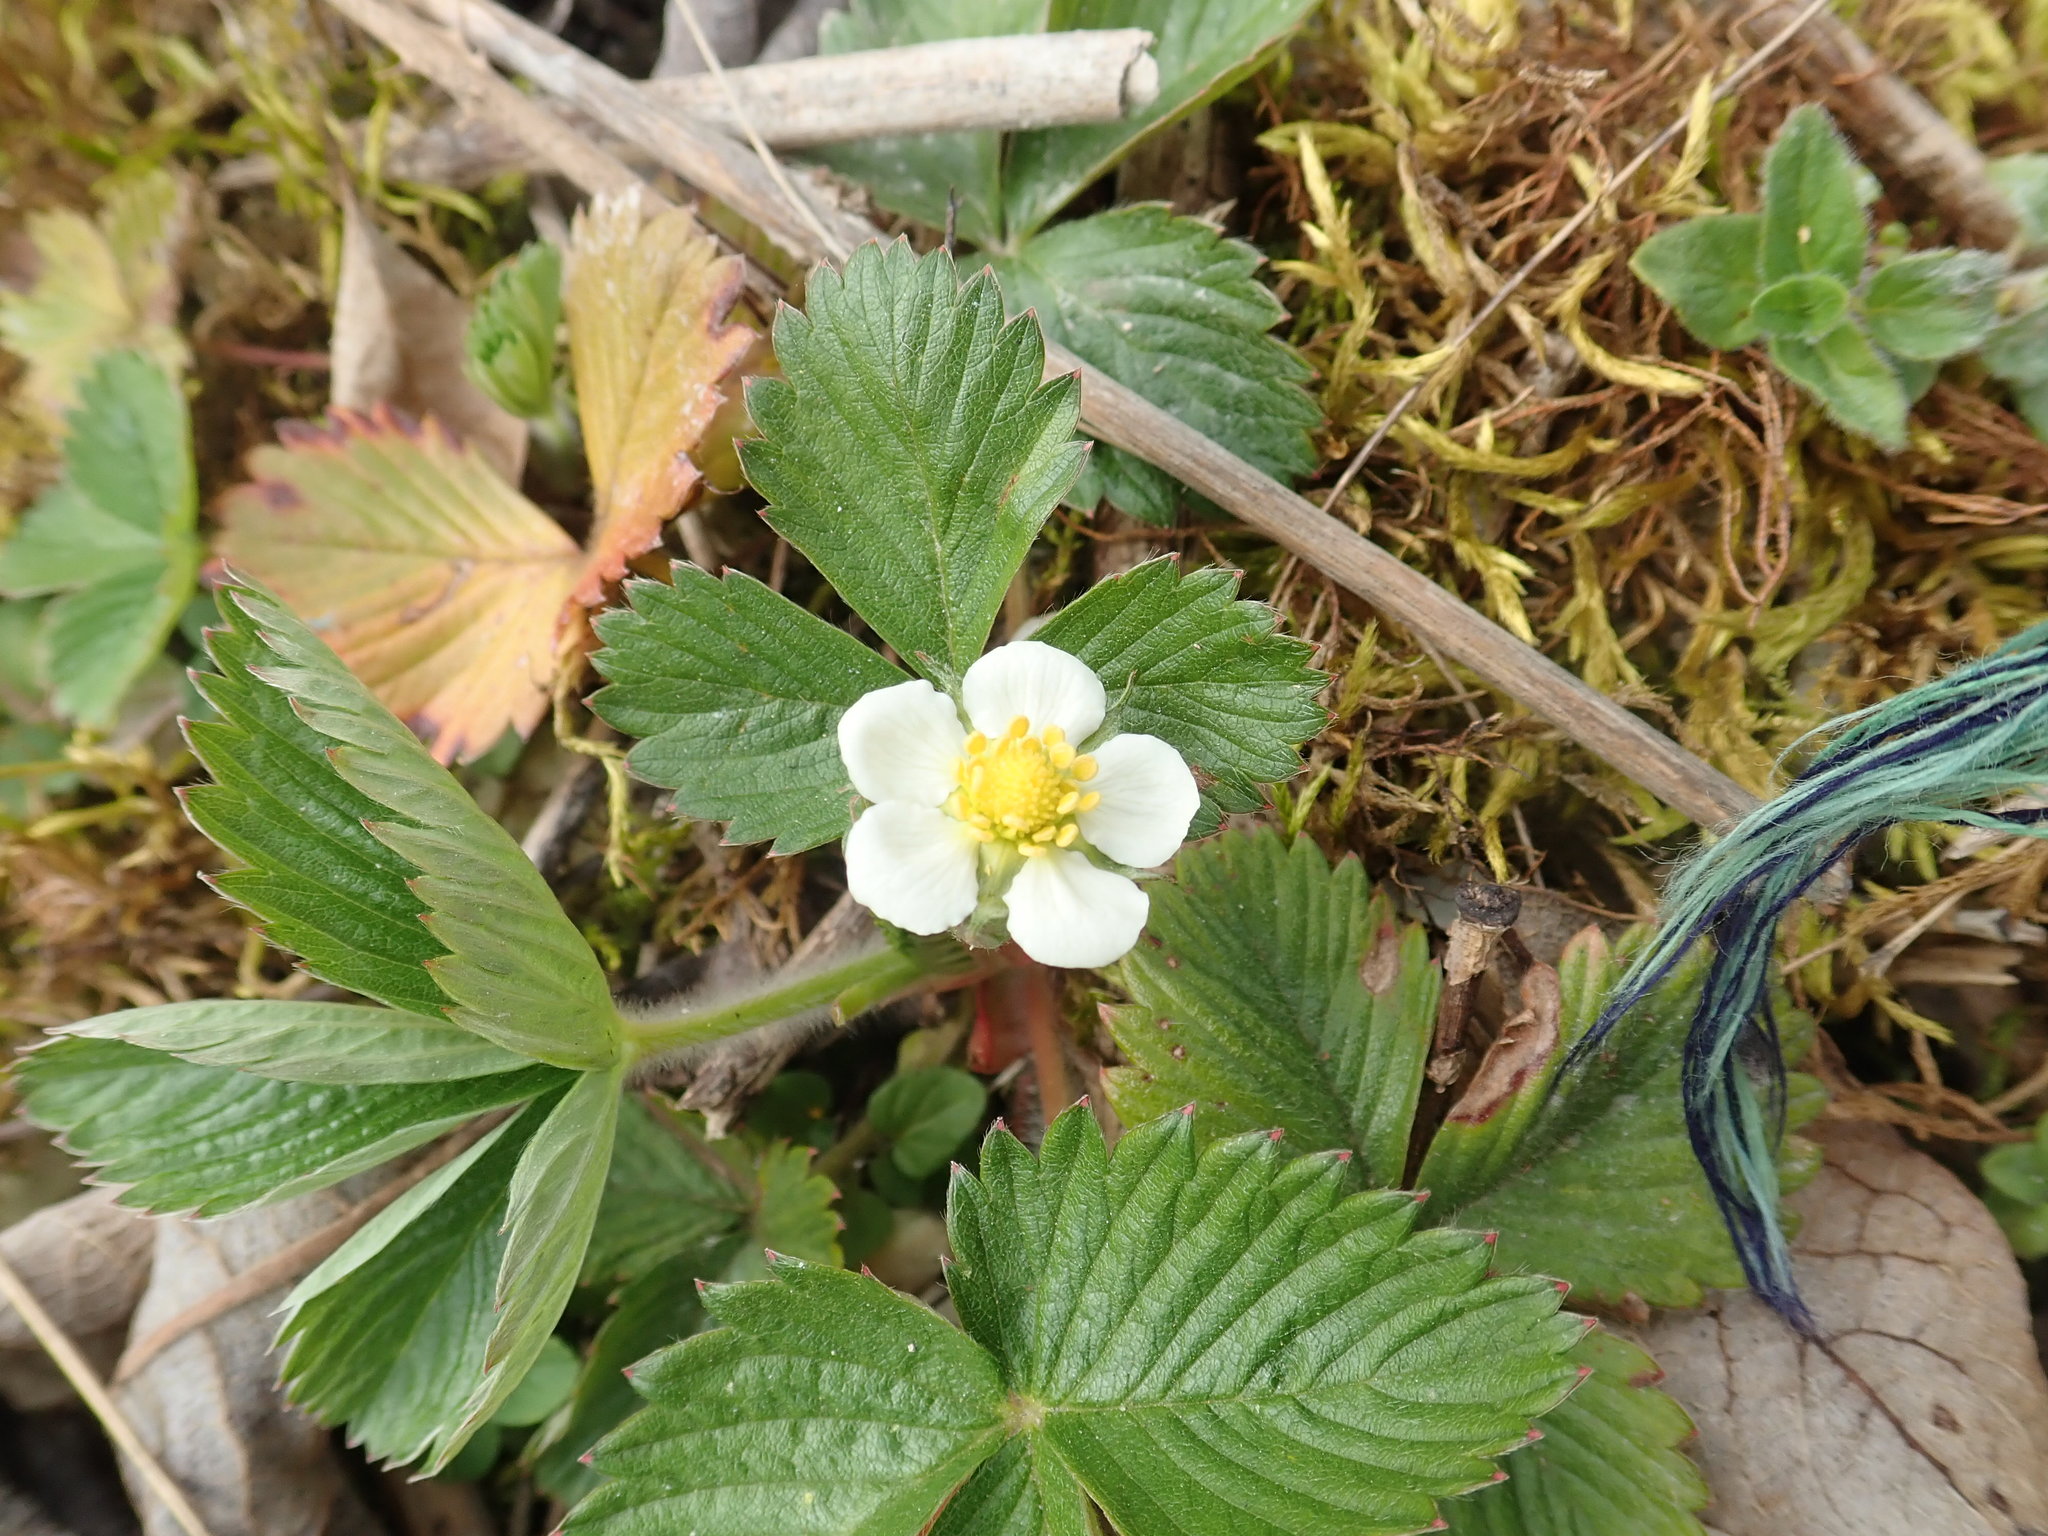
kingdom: Plantae
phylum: Tracheophyta
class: Magnoliopsida
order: Rosales
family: Rosaceae
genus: Fragaria
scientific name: Fragaria vesca
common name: Wild strawberry
